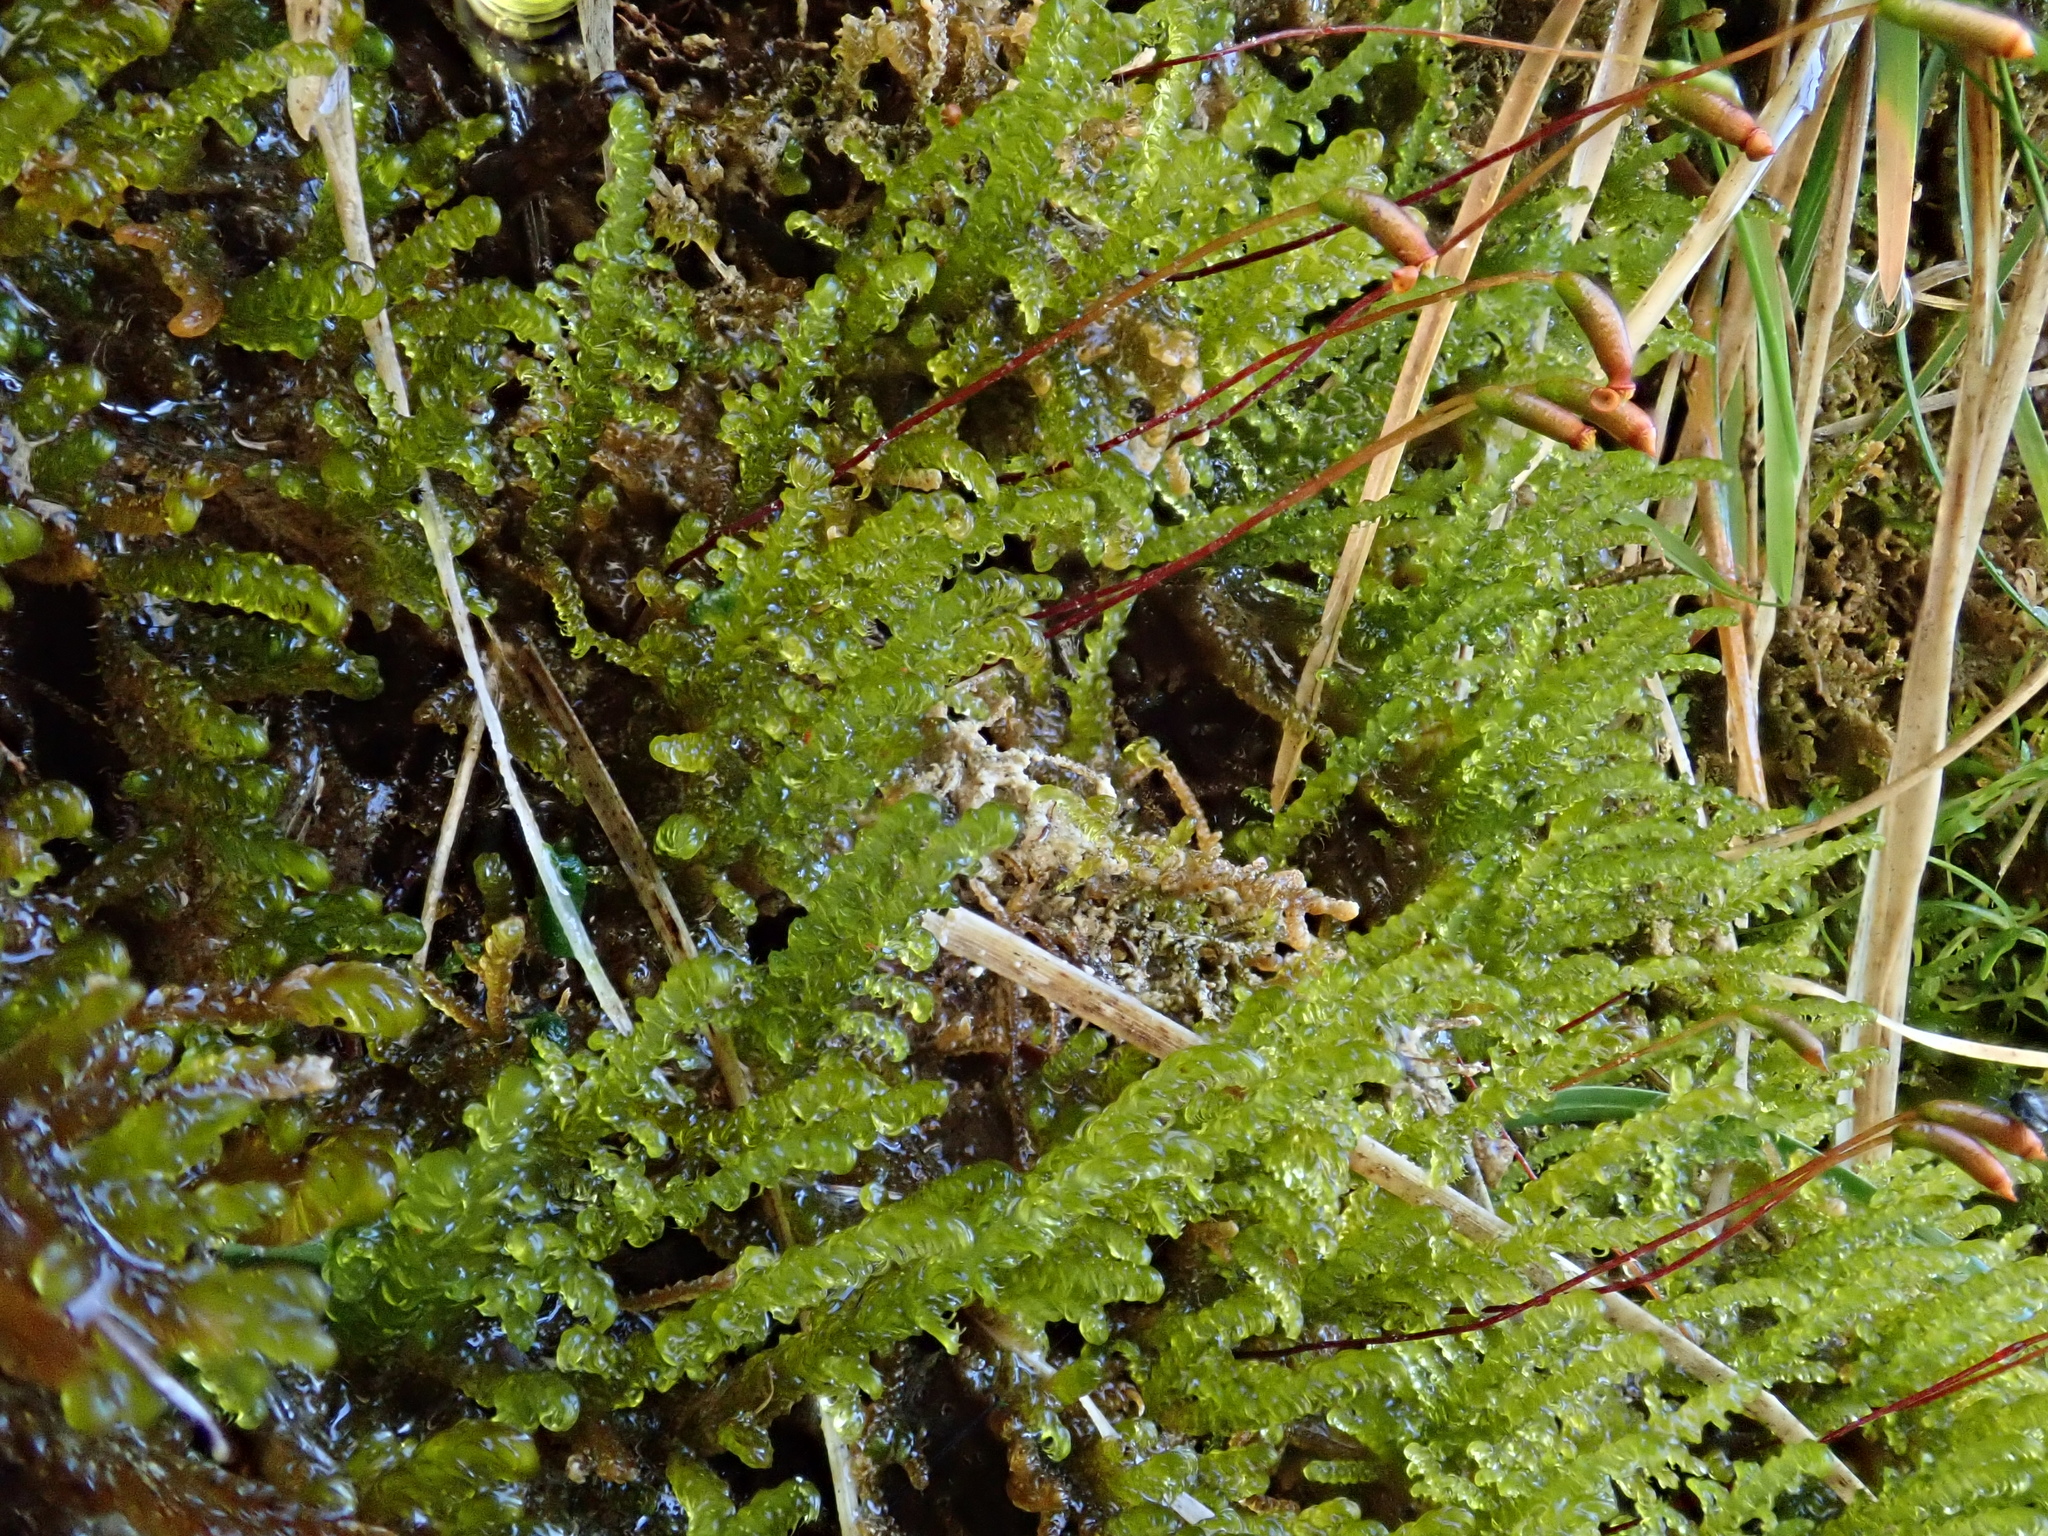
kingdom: Plantae
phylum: Bryophyta
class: Bryopsida
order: Hypnales
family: Amblystegiaceae
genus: Palustriella
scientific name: Palustriella commutata
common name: Curled hook-moss
